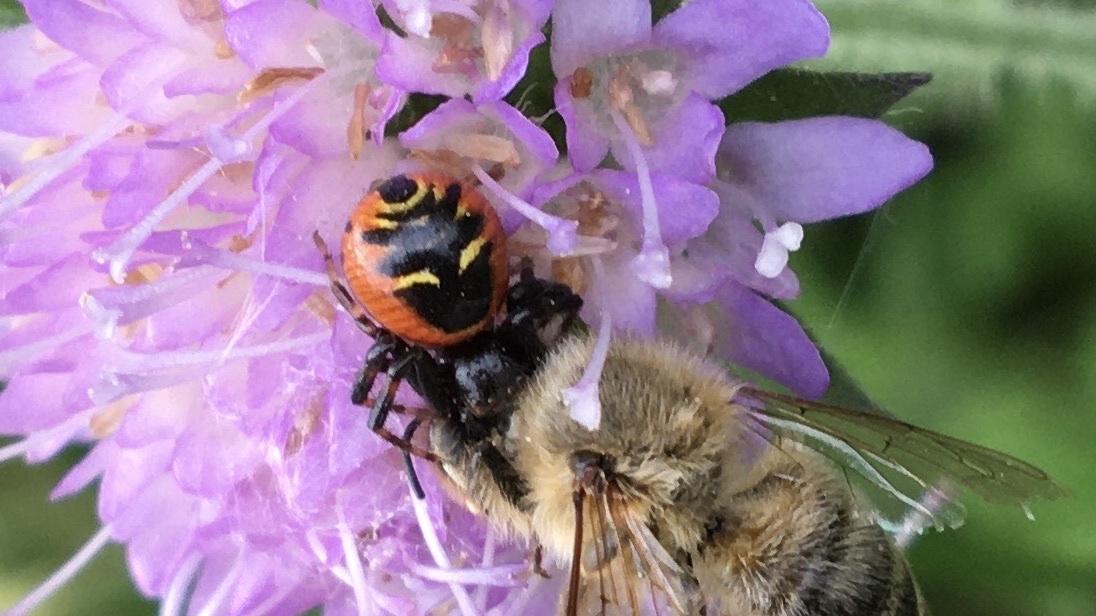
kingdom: Animalia
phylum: Arthropoda
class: Arachnida
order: Araneae
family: Thomisidae
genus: Synema
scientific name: Synema globosum
